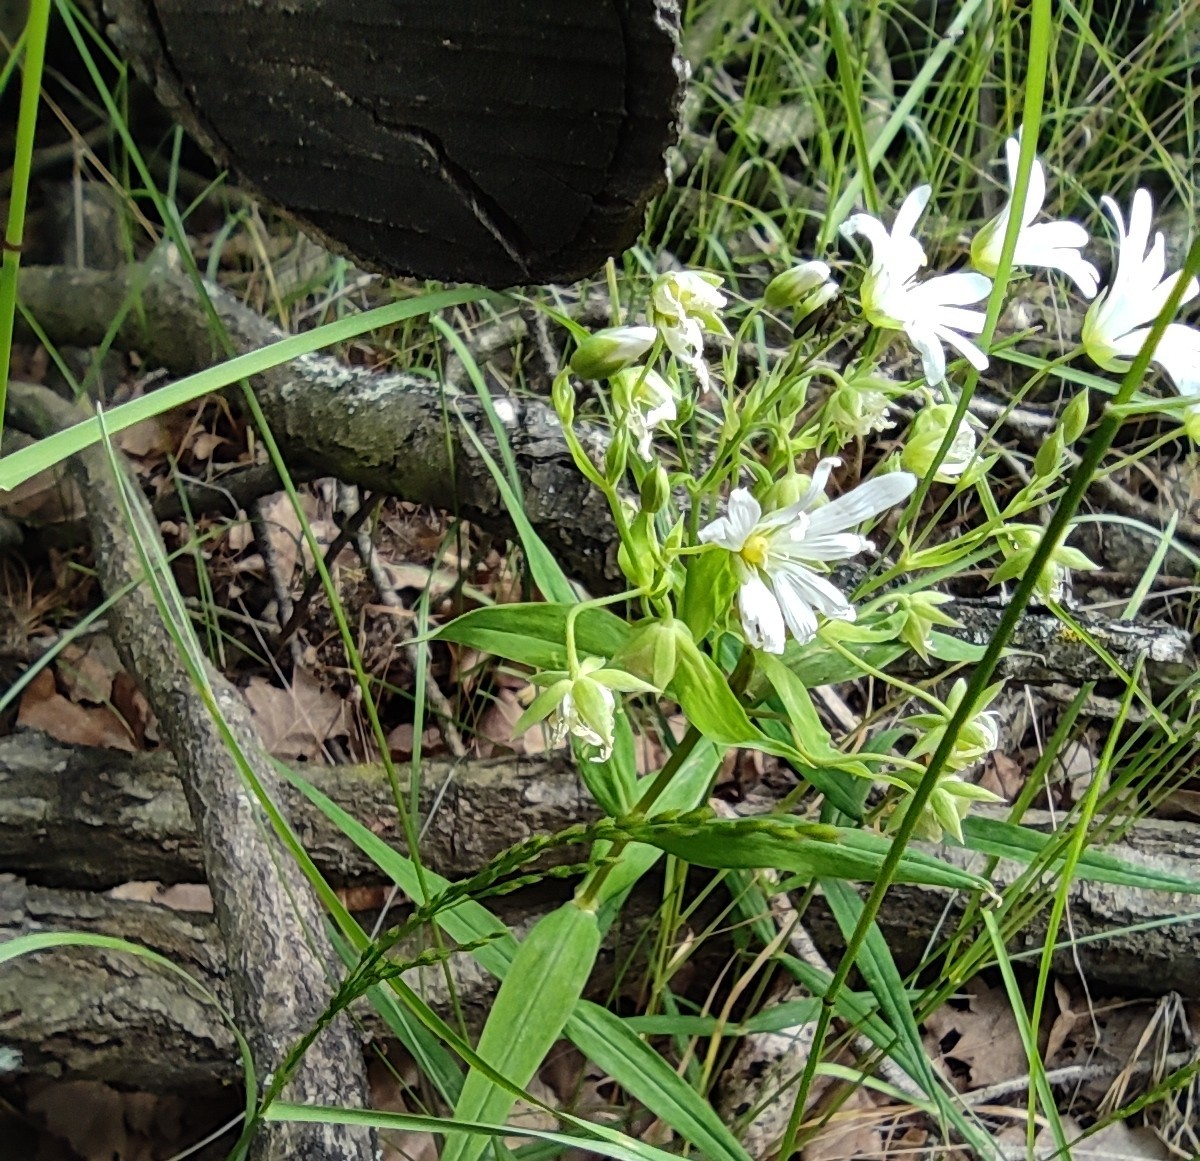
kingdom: Plantae
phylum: Tracheophyta
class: Magnoliopsida
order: Caryophyllales
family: Caryophyllaceae
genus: Rabelera
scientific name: Rabelera holostea
